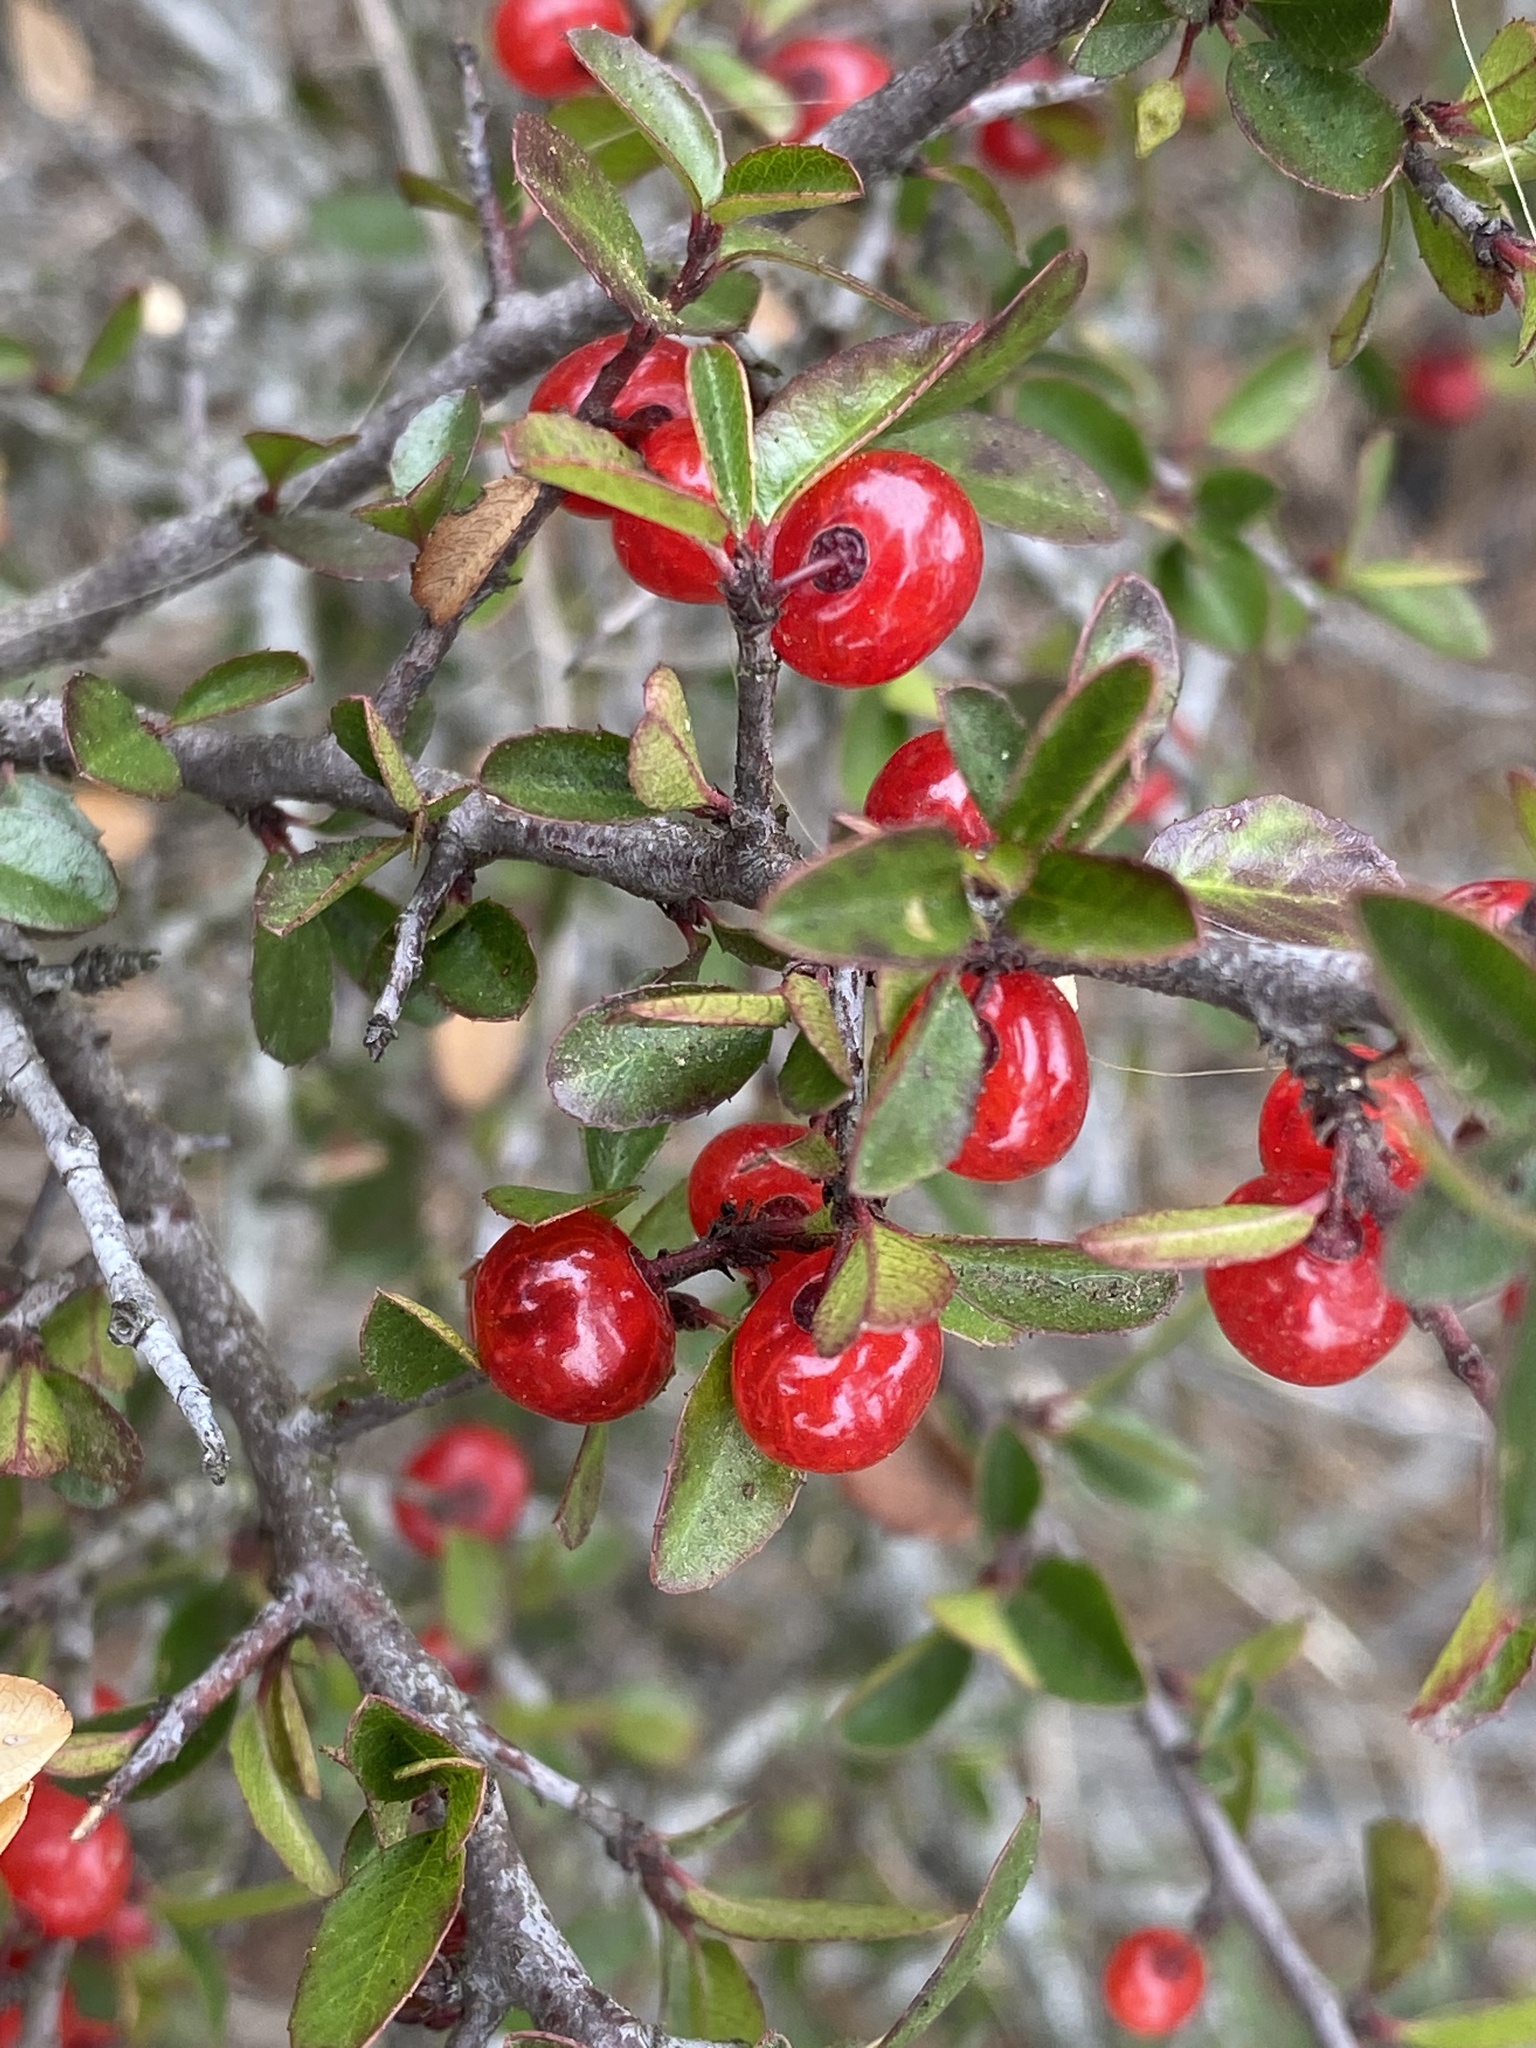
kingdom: Plantae
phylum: Tracheophyta
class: Magnoliopsida
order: Rosales
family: Rhamnaceae
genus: Endotropis
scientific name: Endotropis crocea
